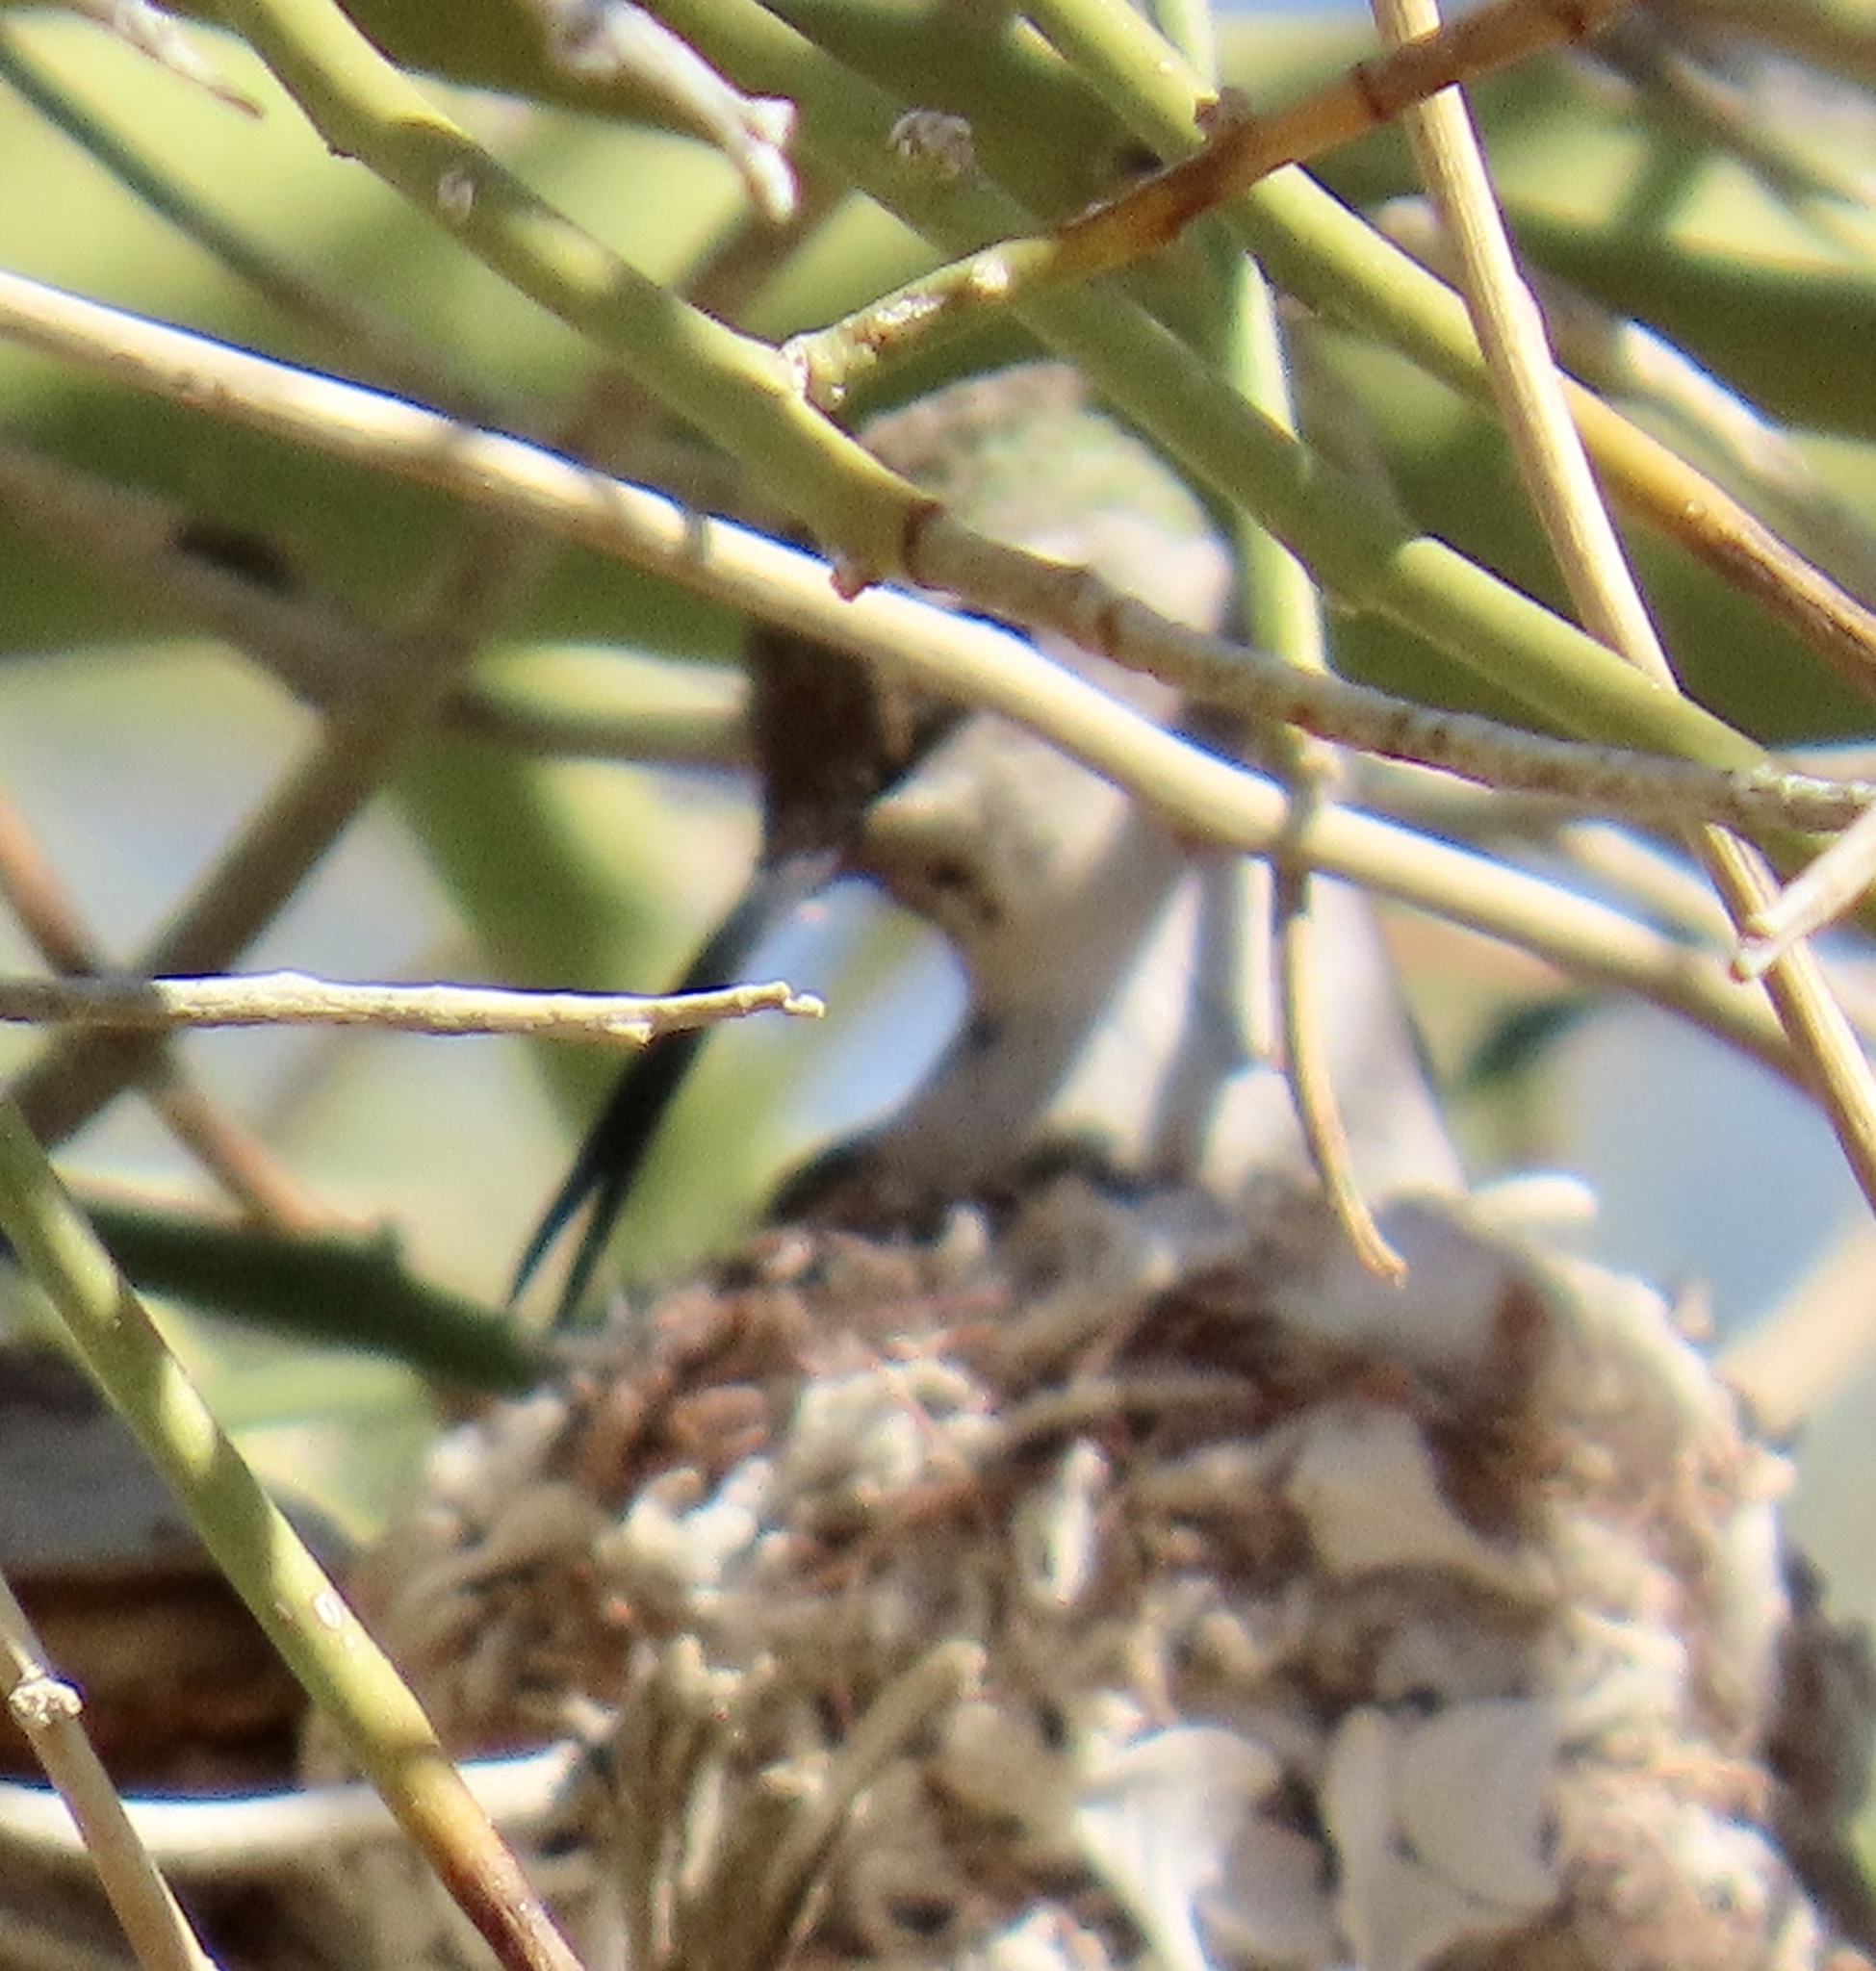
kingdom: Animalia
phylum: Chordata
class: Aves
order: Apodiformes
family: Trochilidae
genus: Calypte
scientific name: Calypte costae
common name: Costa's hummingbird
